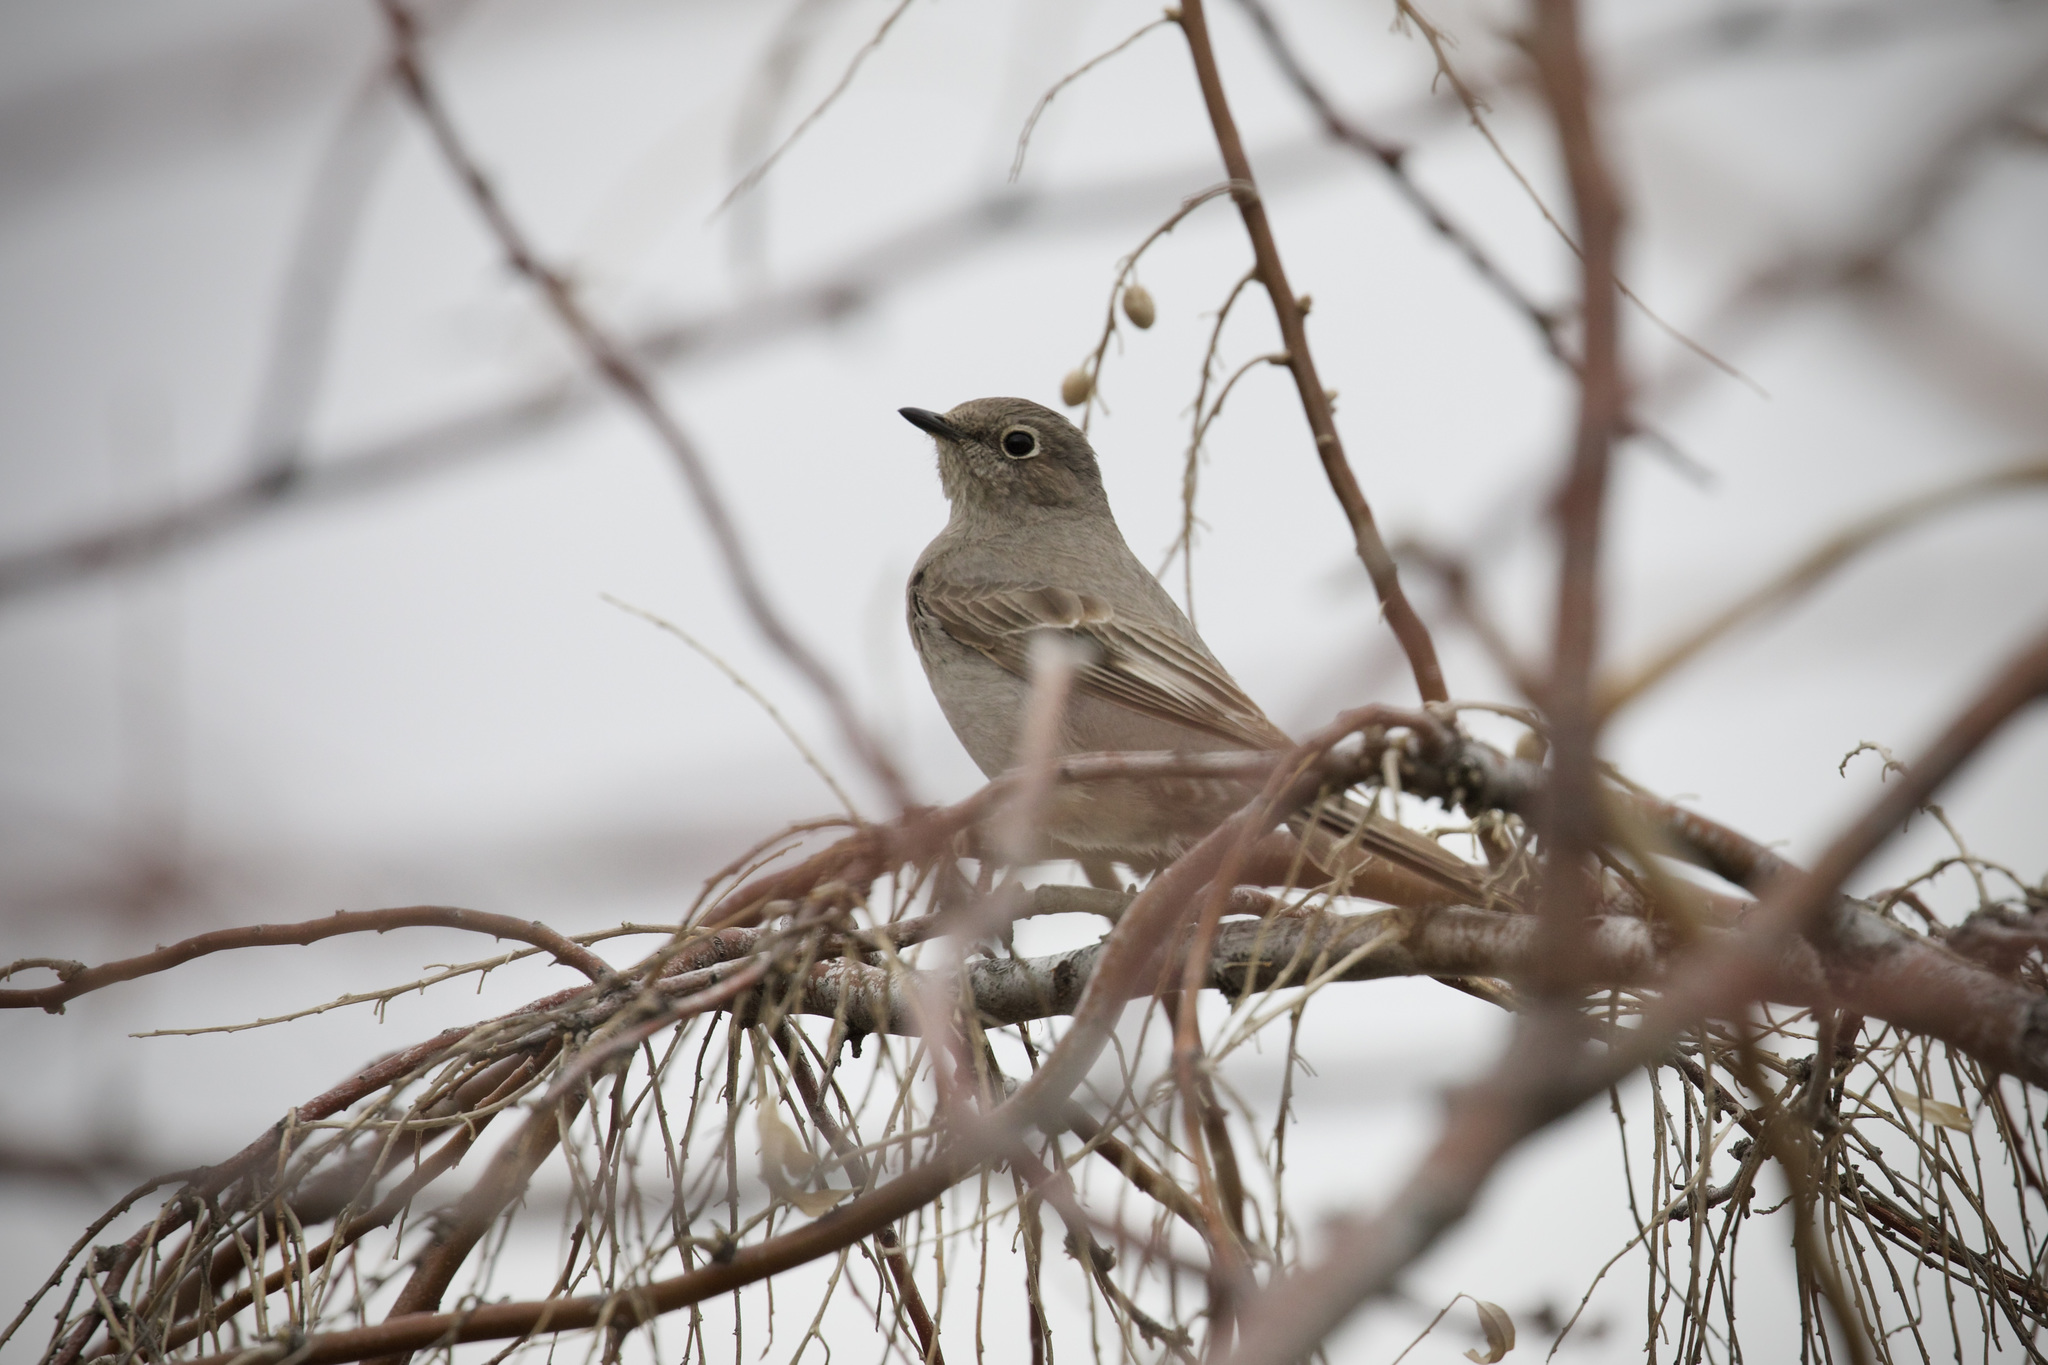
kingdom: Animalia
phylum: Chordata
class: Aves
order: Passeriformes
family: Turdidae
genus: Myadestes
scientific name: Myadestes townsendi
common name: Townsend's solitaire
